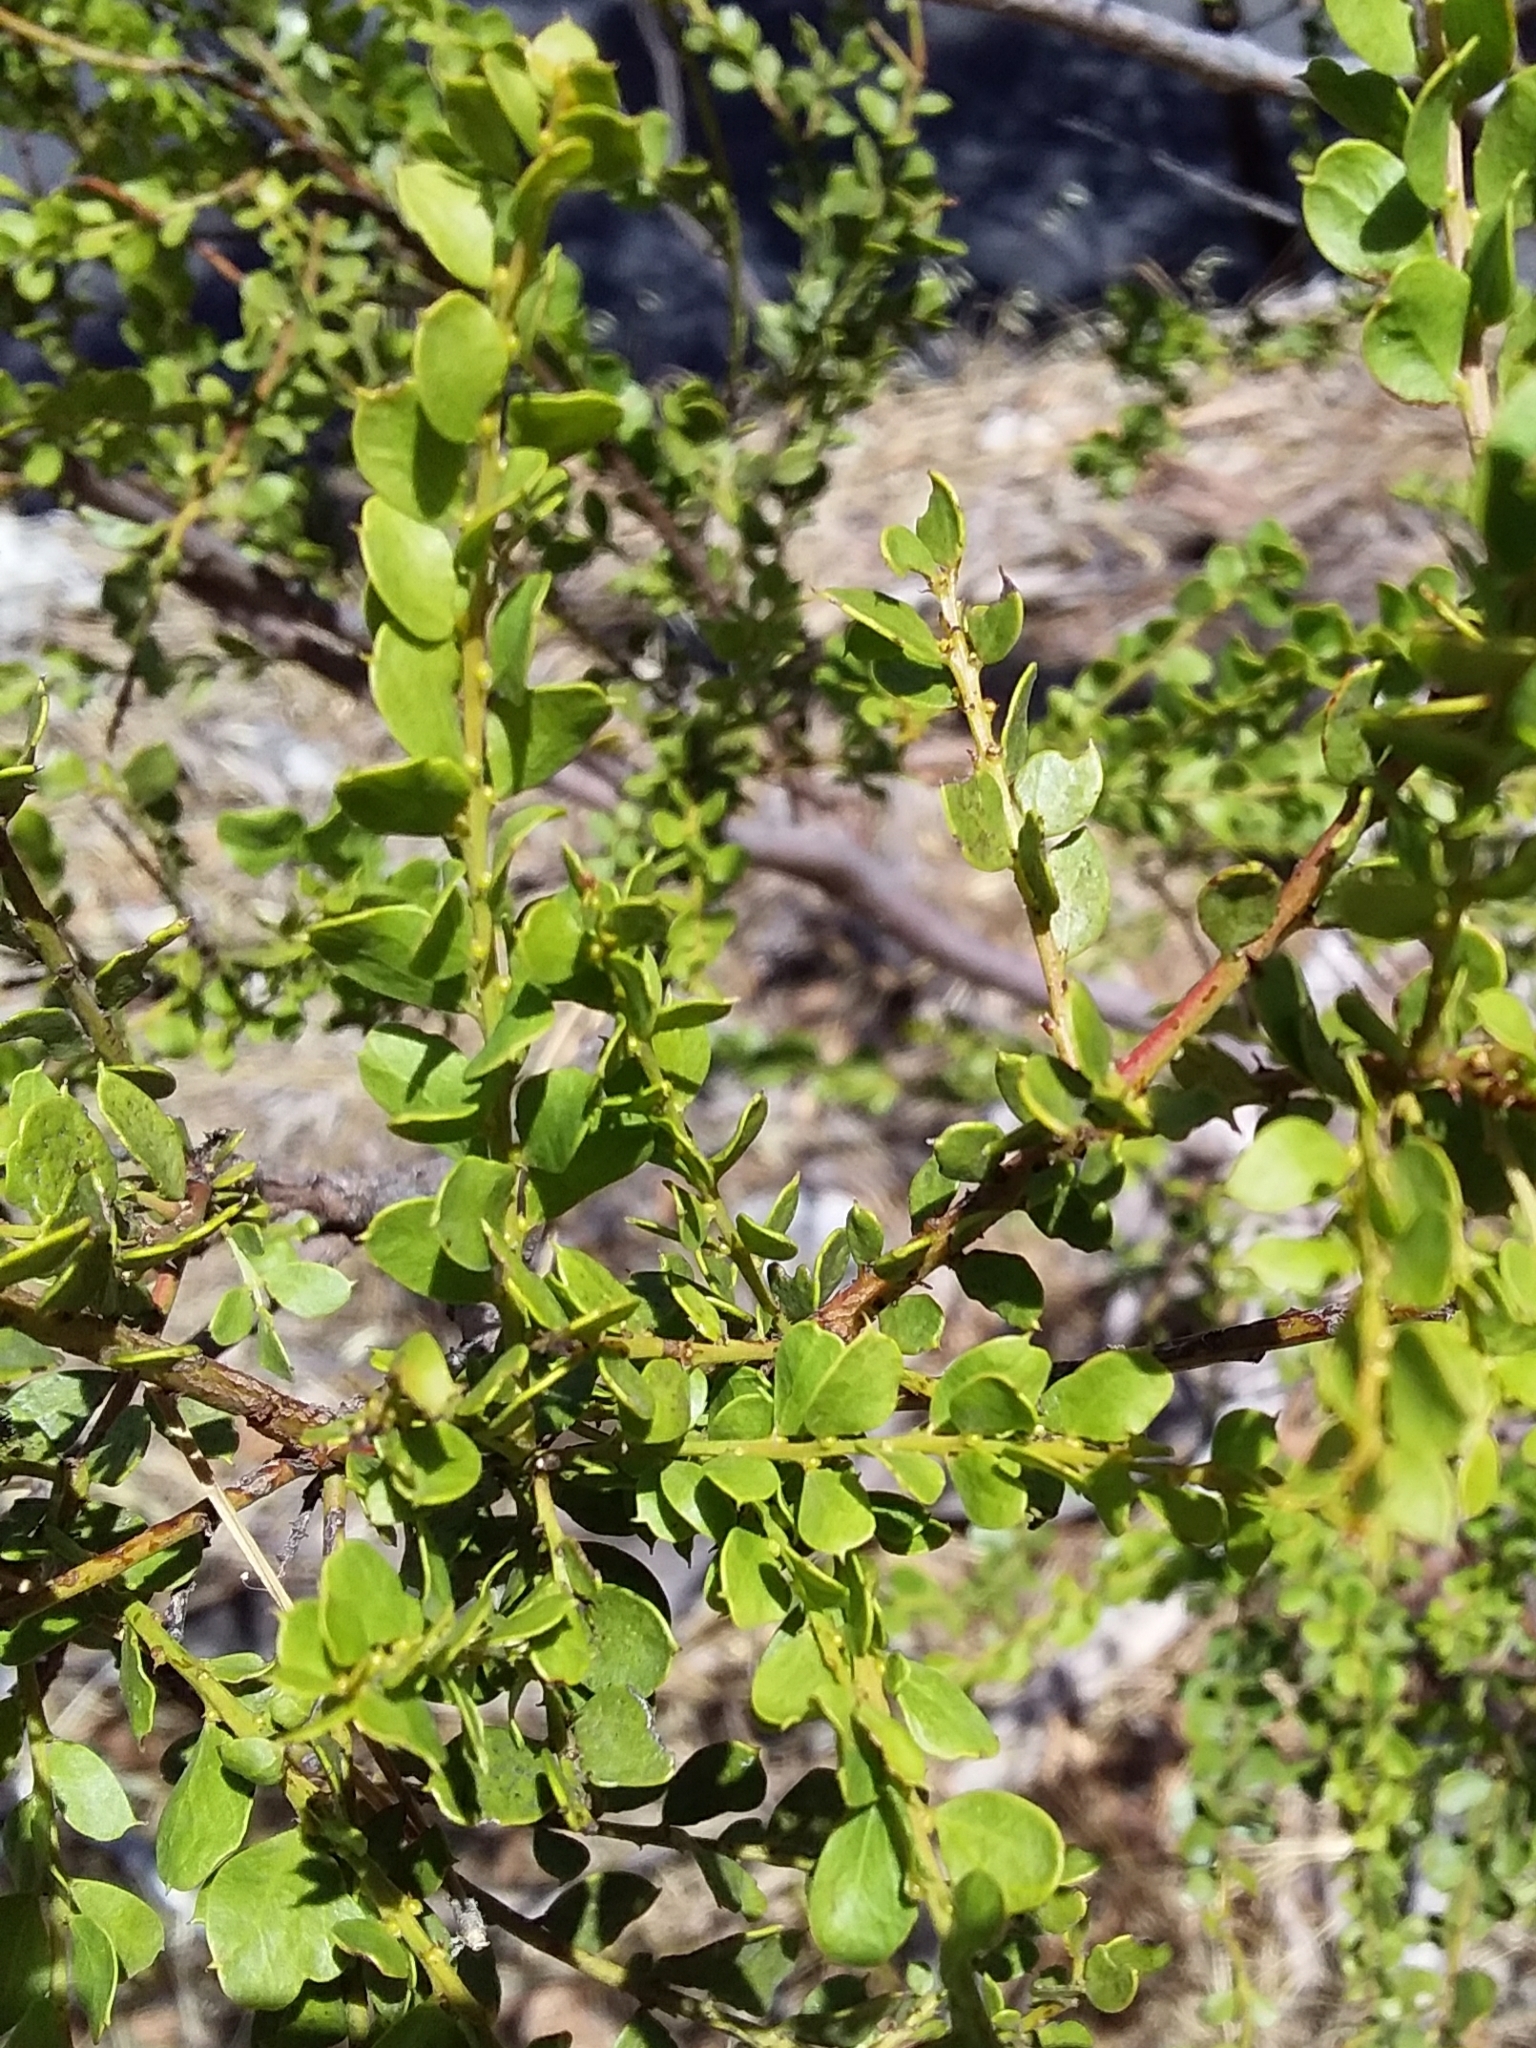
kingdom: Plantae
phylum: Tracheophyta
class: Magnoliopsida
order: Fabales
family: Fabaceae
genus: Acacia
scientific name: Acacia acinacea
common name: Gold-dust acacia
